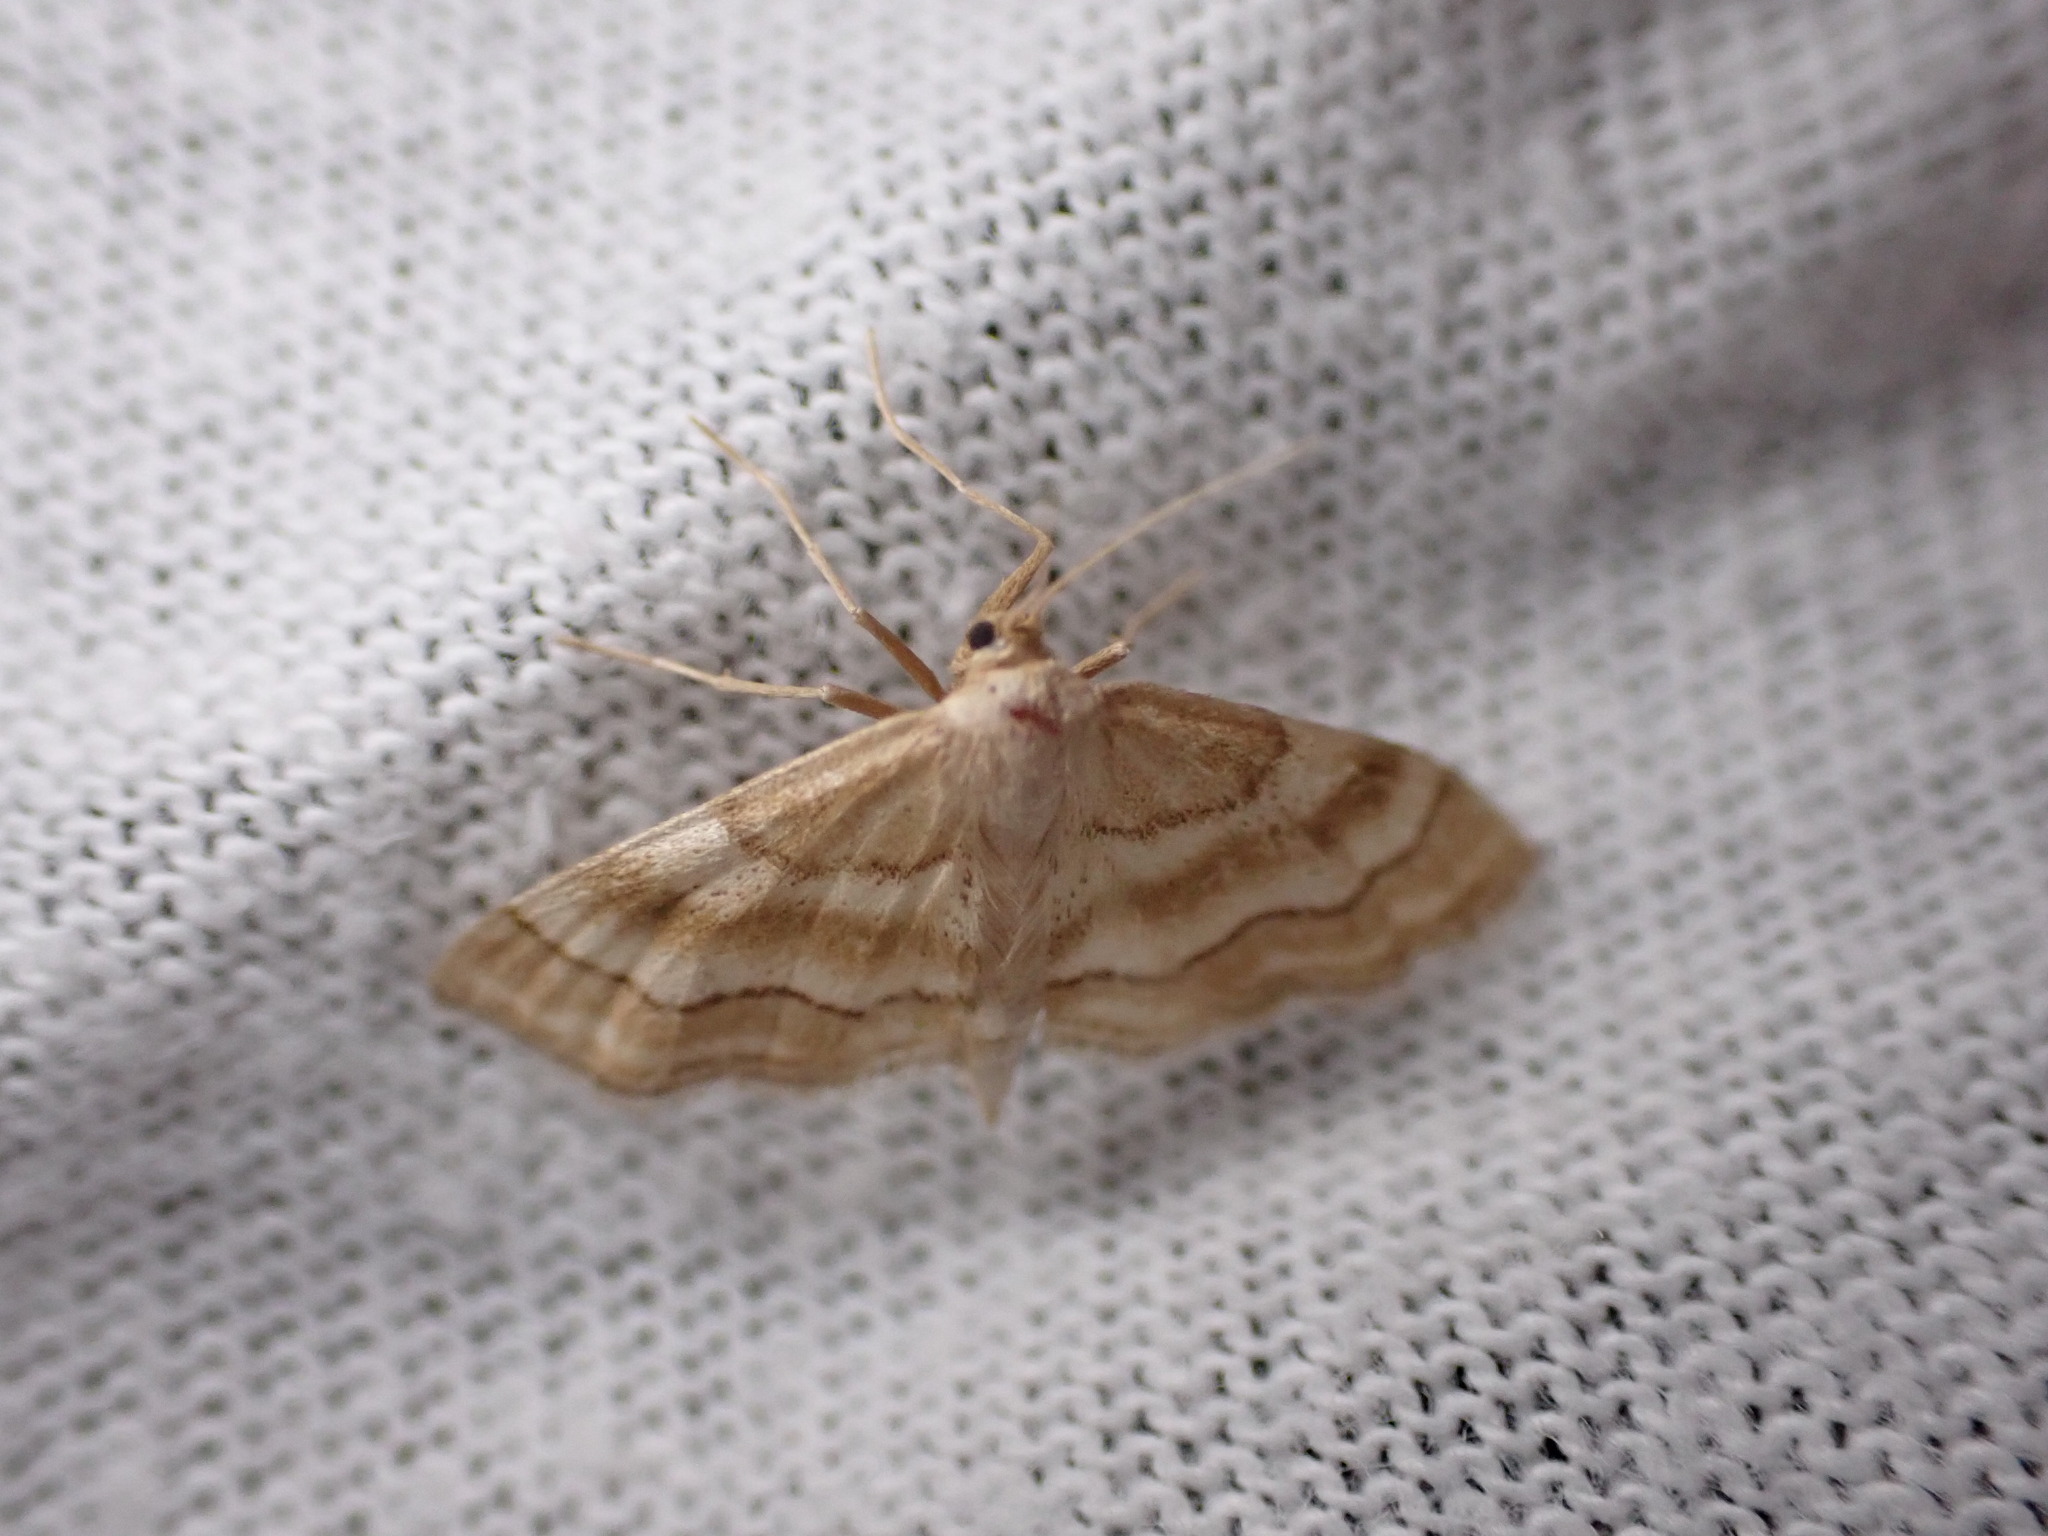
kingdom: Animalia
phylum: Arthropoda
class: Insecta
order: Lepidoptera
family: Geometridae
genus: Idaea
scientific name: Idaea circuitaria
